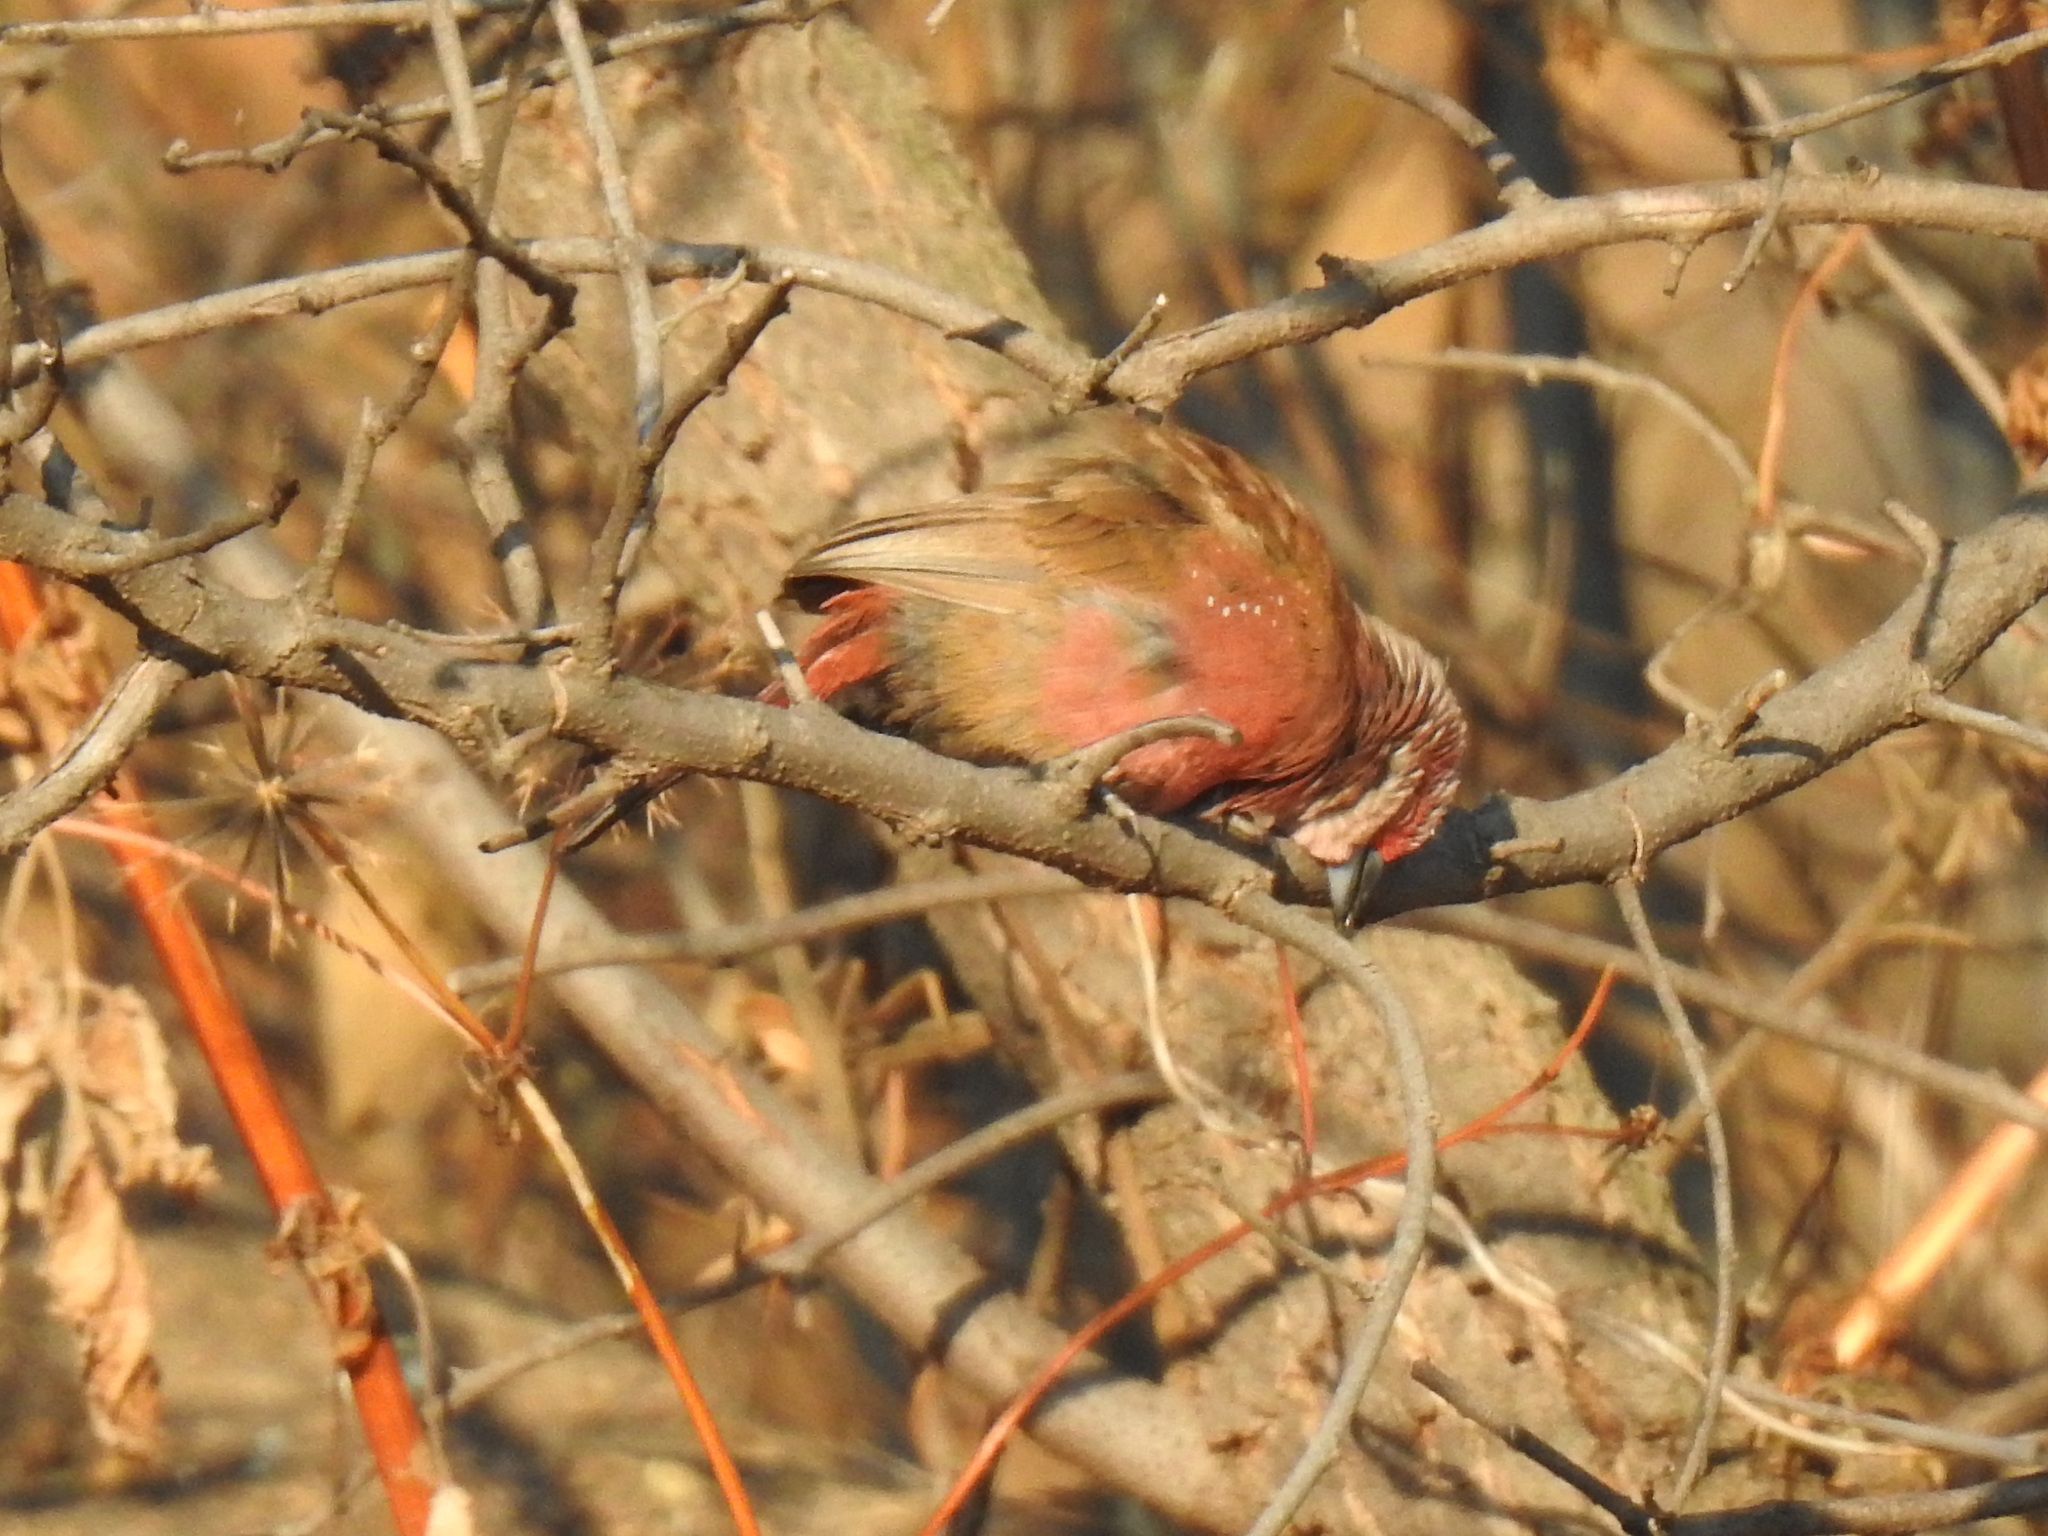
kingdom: Animalia
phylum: Chordata
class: Aves
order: Passeriformes
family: Estrildidae
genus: Lagonosticta
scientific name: Lagonosticta rhodopareia
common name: Jameson's firefinch
